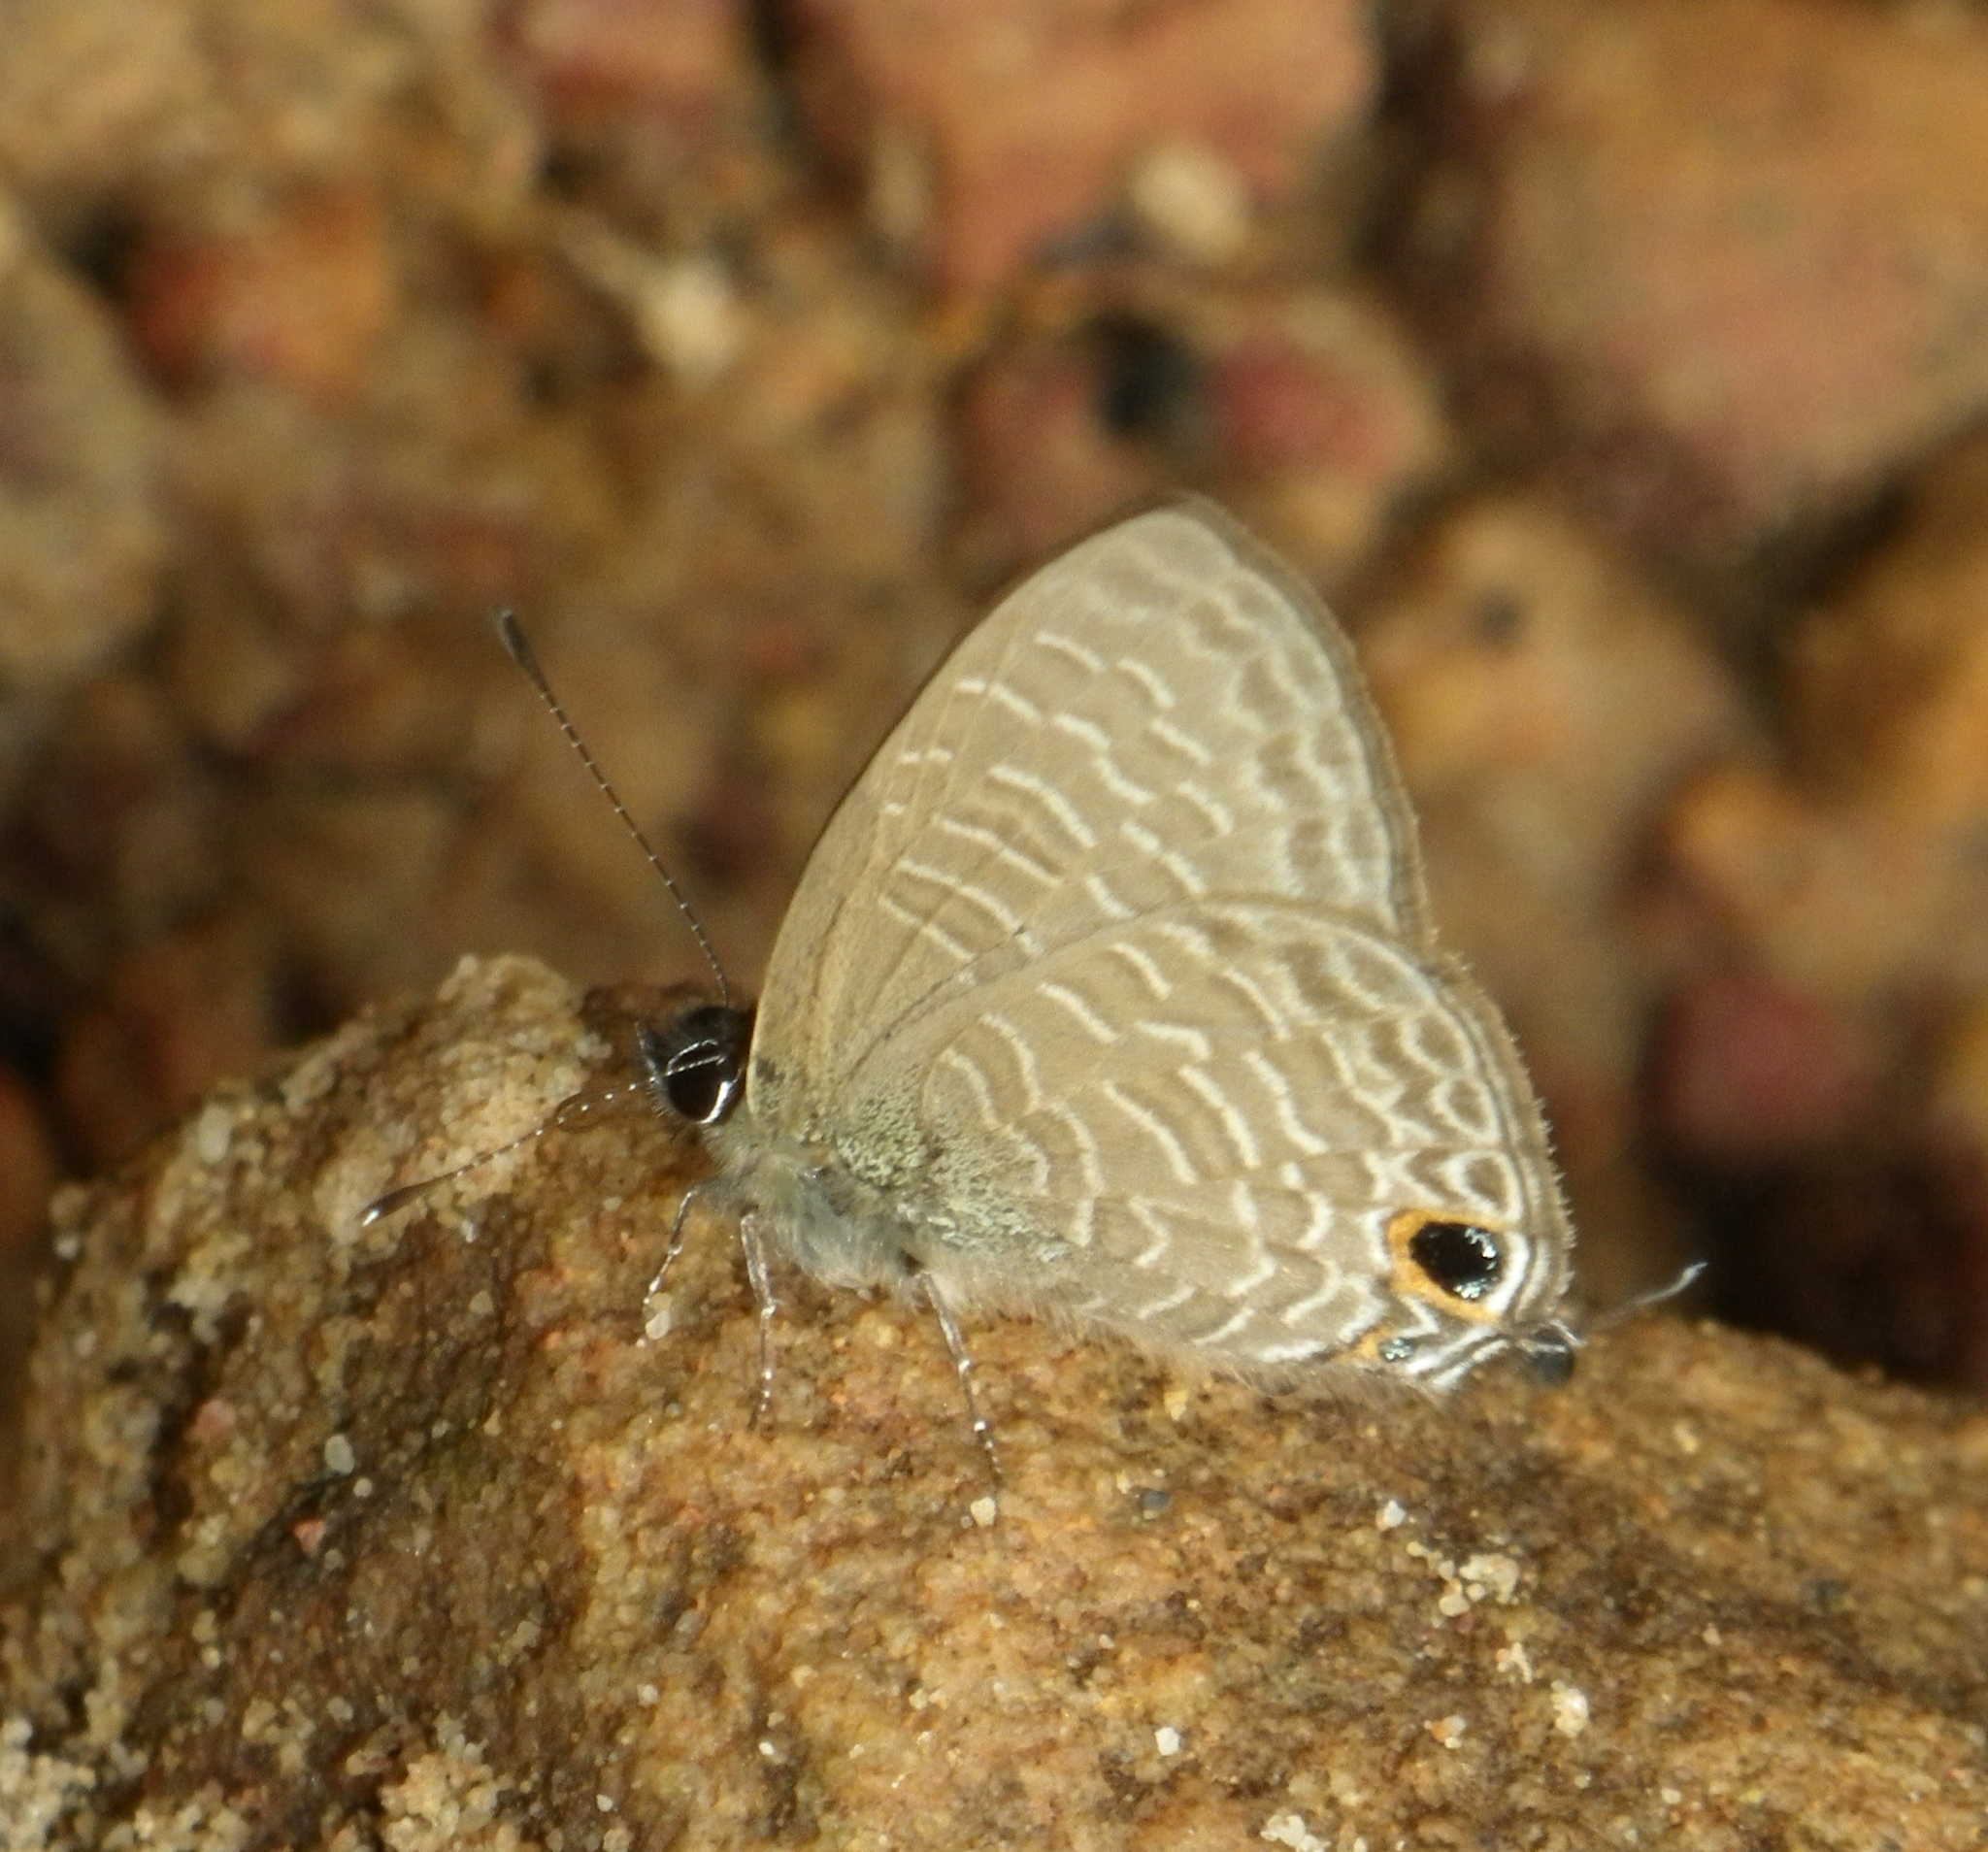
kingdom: Animalia
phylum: Arthropoda
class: Insecta
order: Lepidoptera
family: Lycaenidae
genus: Ionolyce
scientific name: Ionolyce helicon
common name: Pointed line blue
